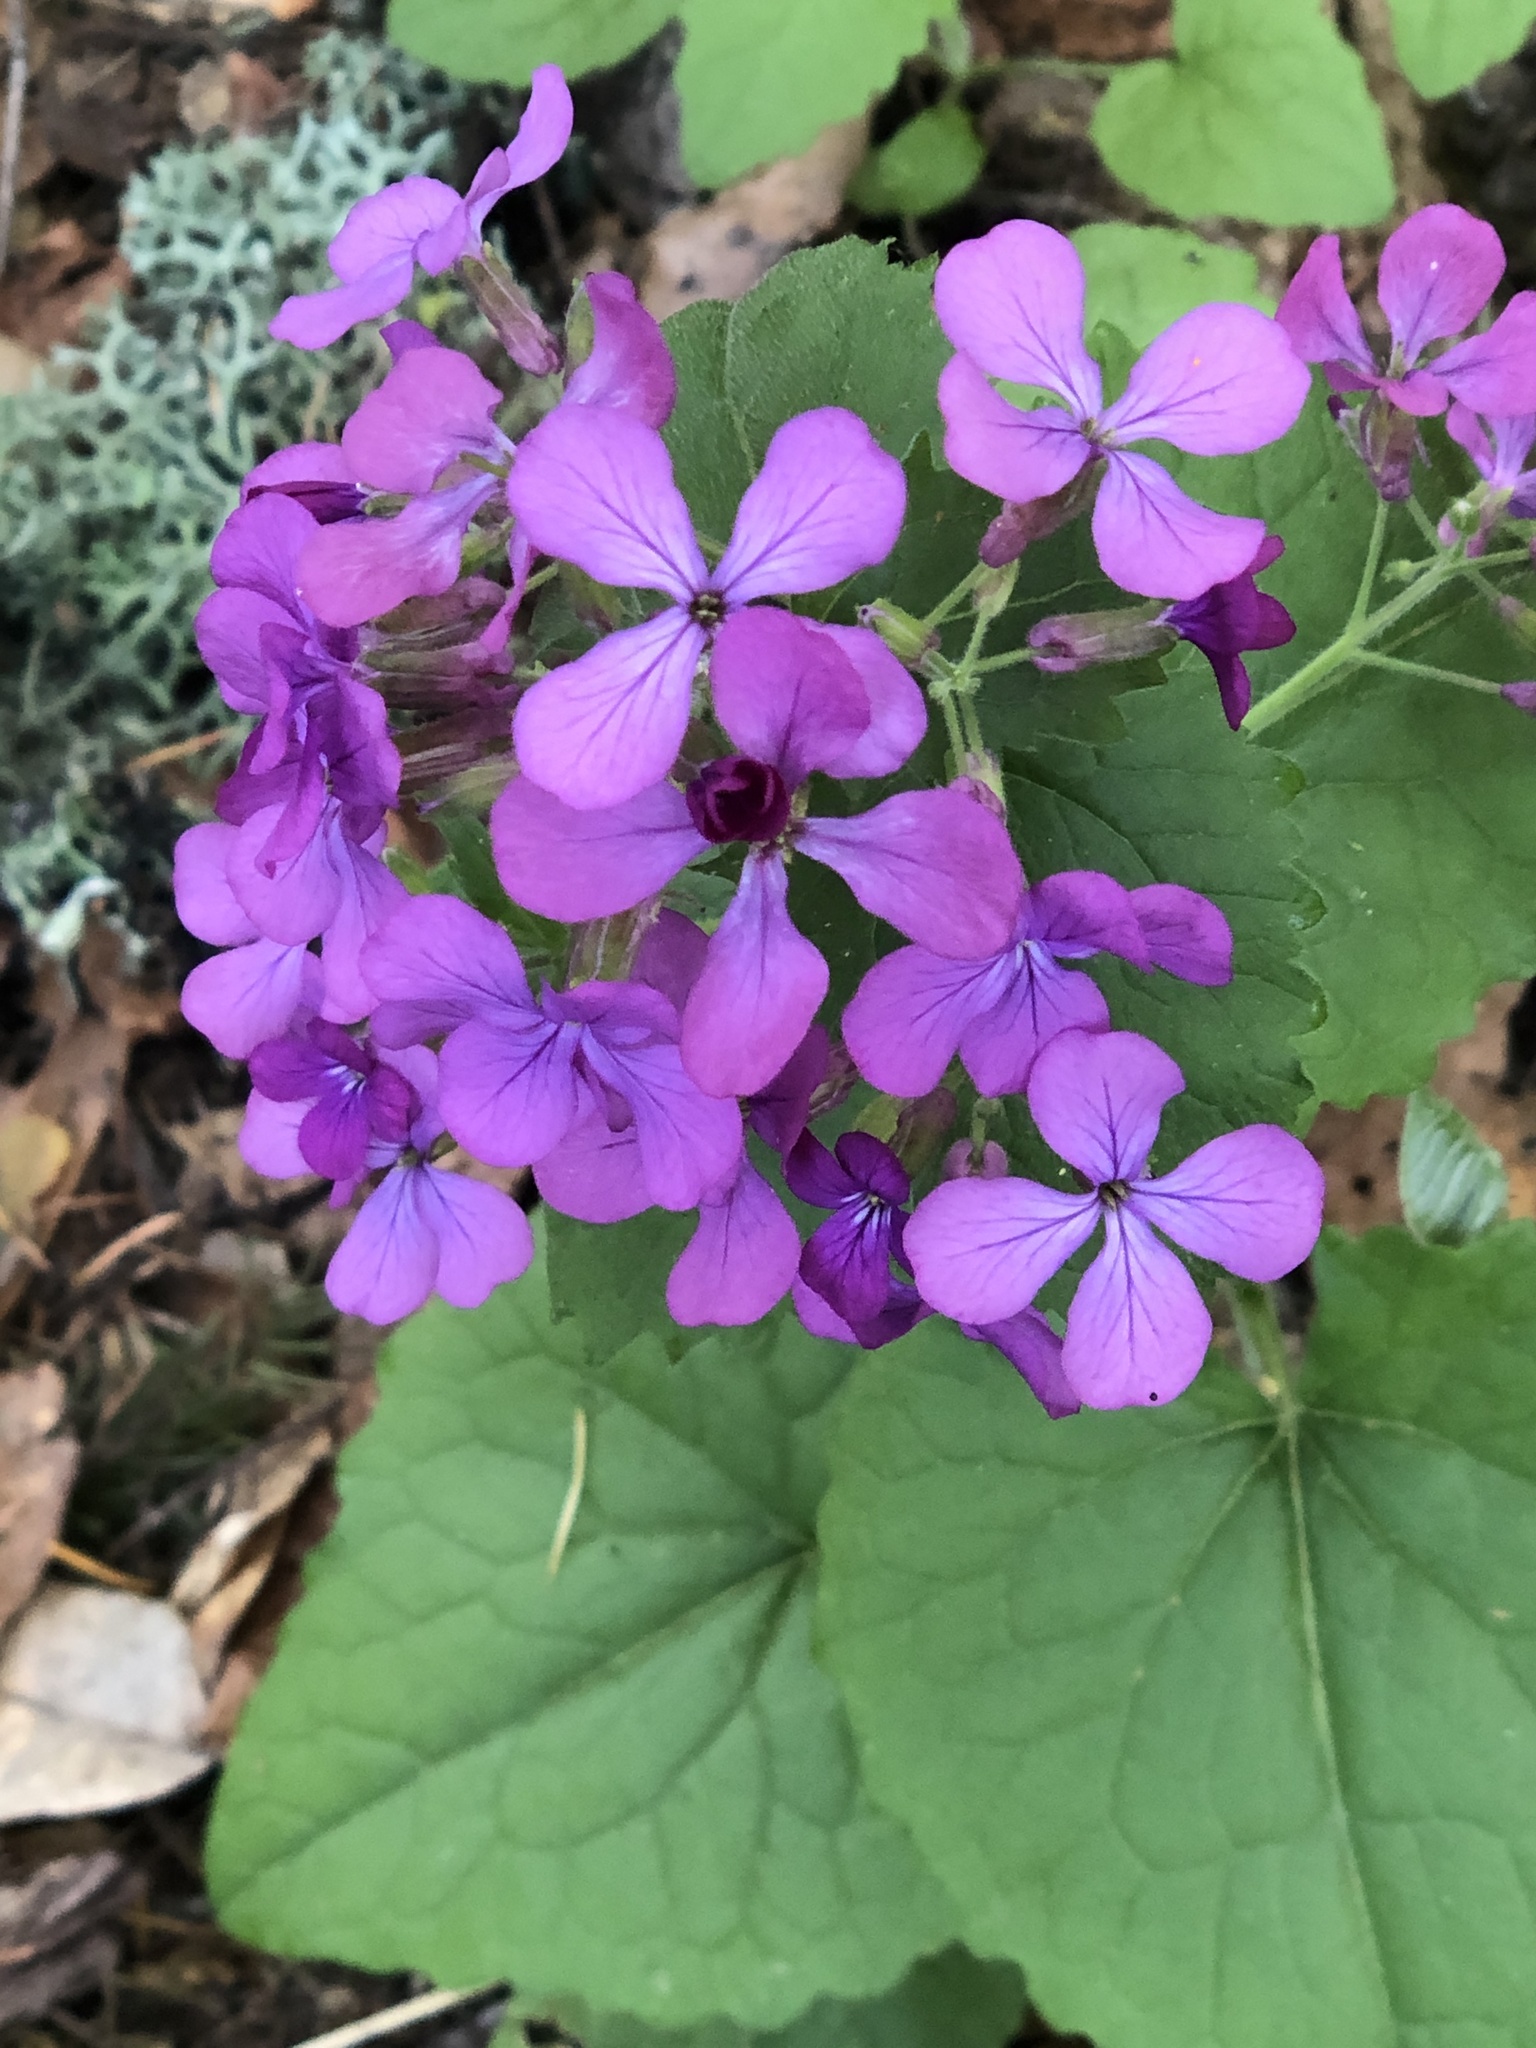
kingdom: Plantae
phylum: Tracheophyta
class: Magnoliopsida
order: Brassicales
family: Brassicaceae
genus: Lunaria
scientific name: Lunaria annua
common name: Honesty
